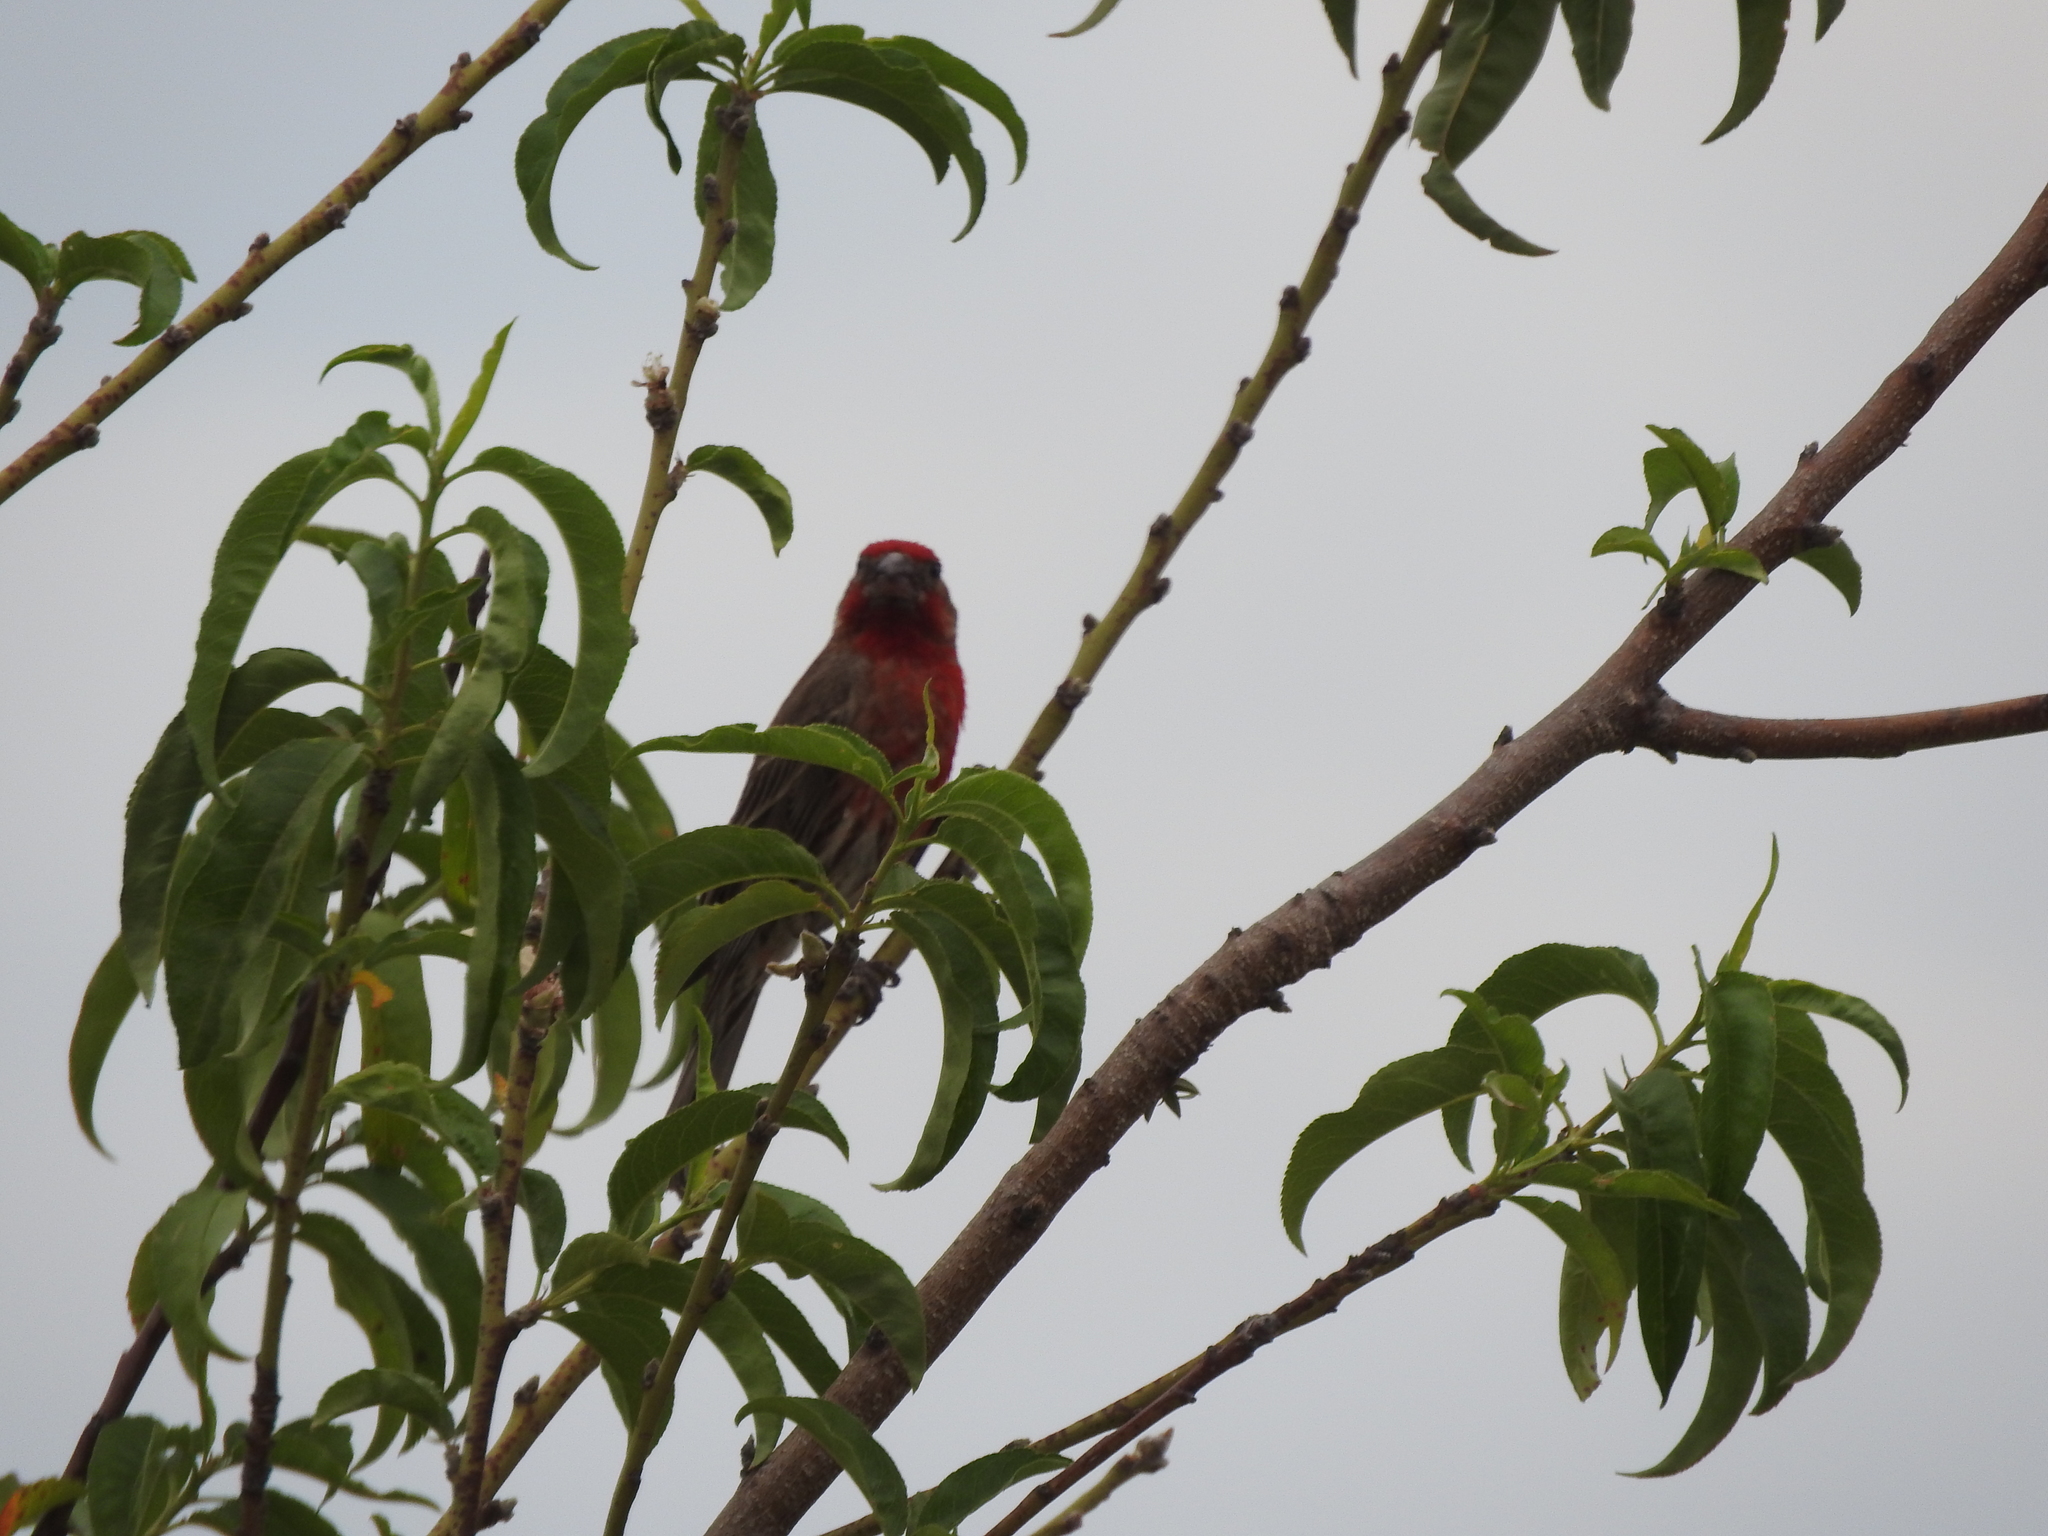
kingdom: Animalia
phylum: Chordata
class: Aves
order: Passeriformes
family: Fringillidae
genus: Haemorhous
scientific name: Haemorhous mexicanus
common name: House finch
